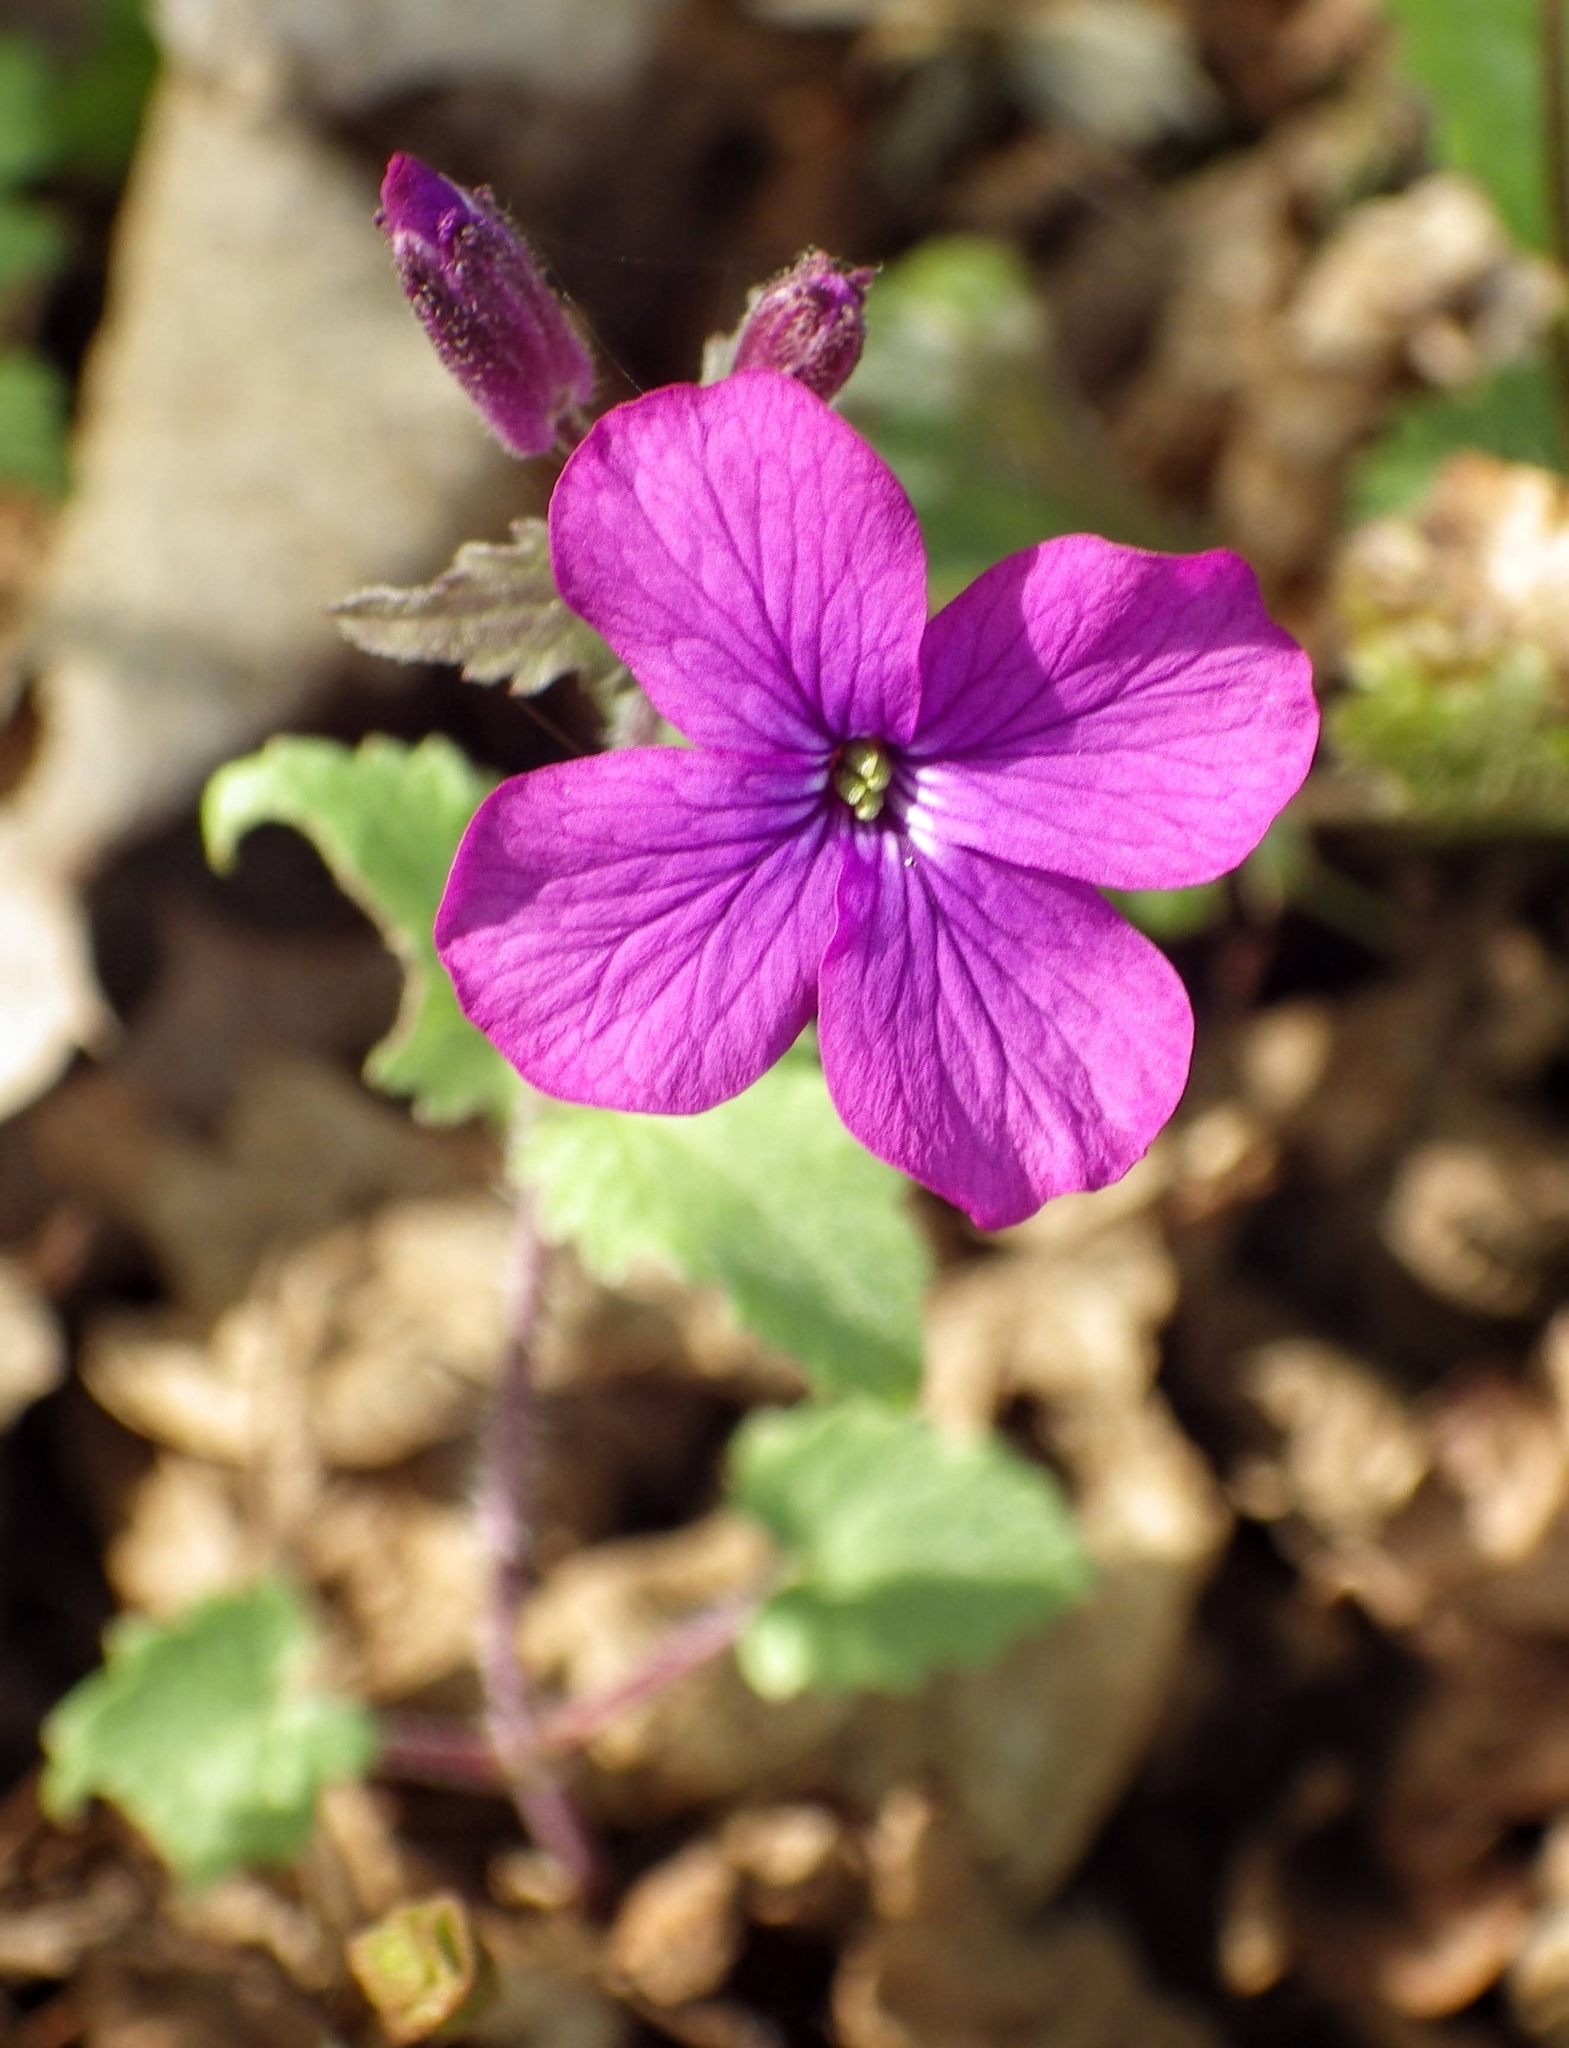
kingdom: Plantae
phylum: Tracheophyta
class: Magnoliopsida
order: Brassicales
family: Brassicaceae
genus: Lunaria
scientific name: Lunaria annua
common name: Honesty
